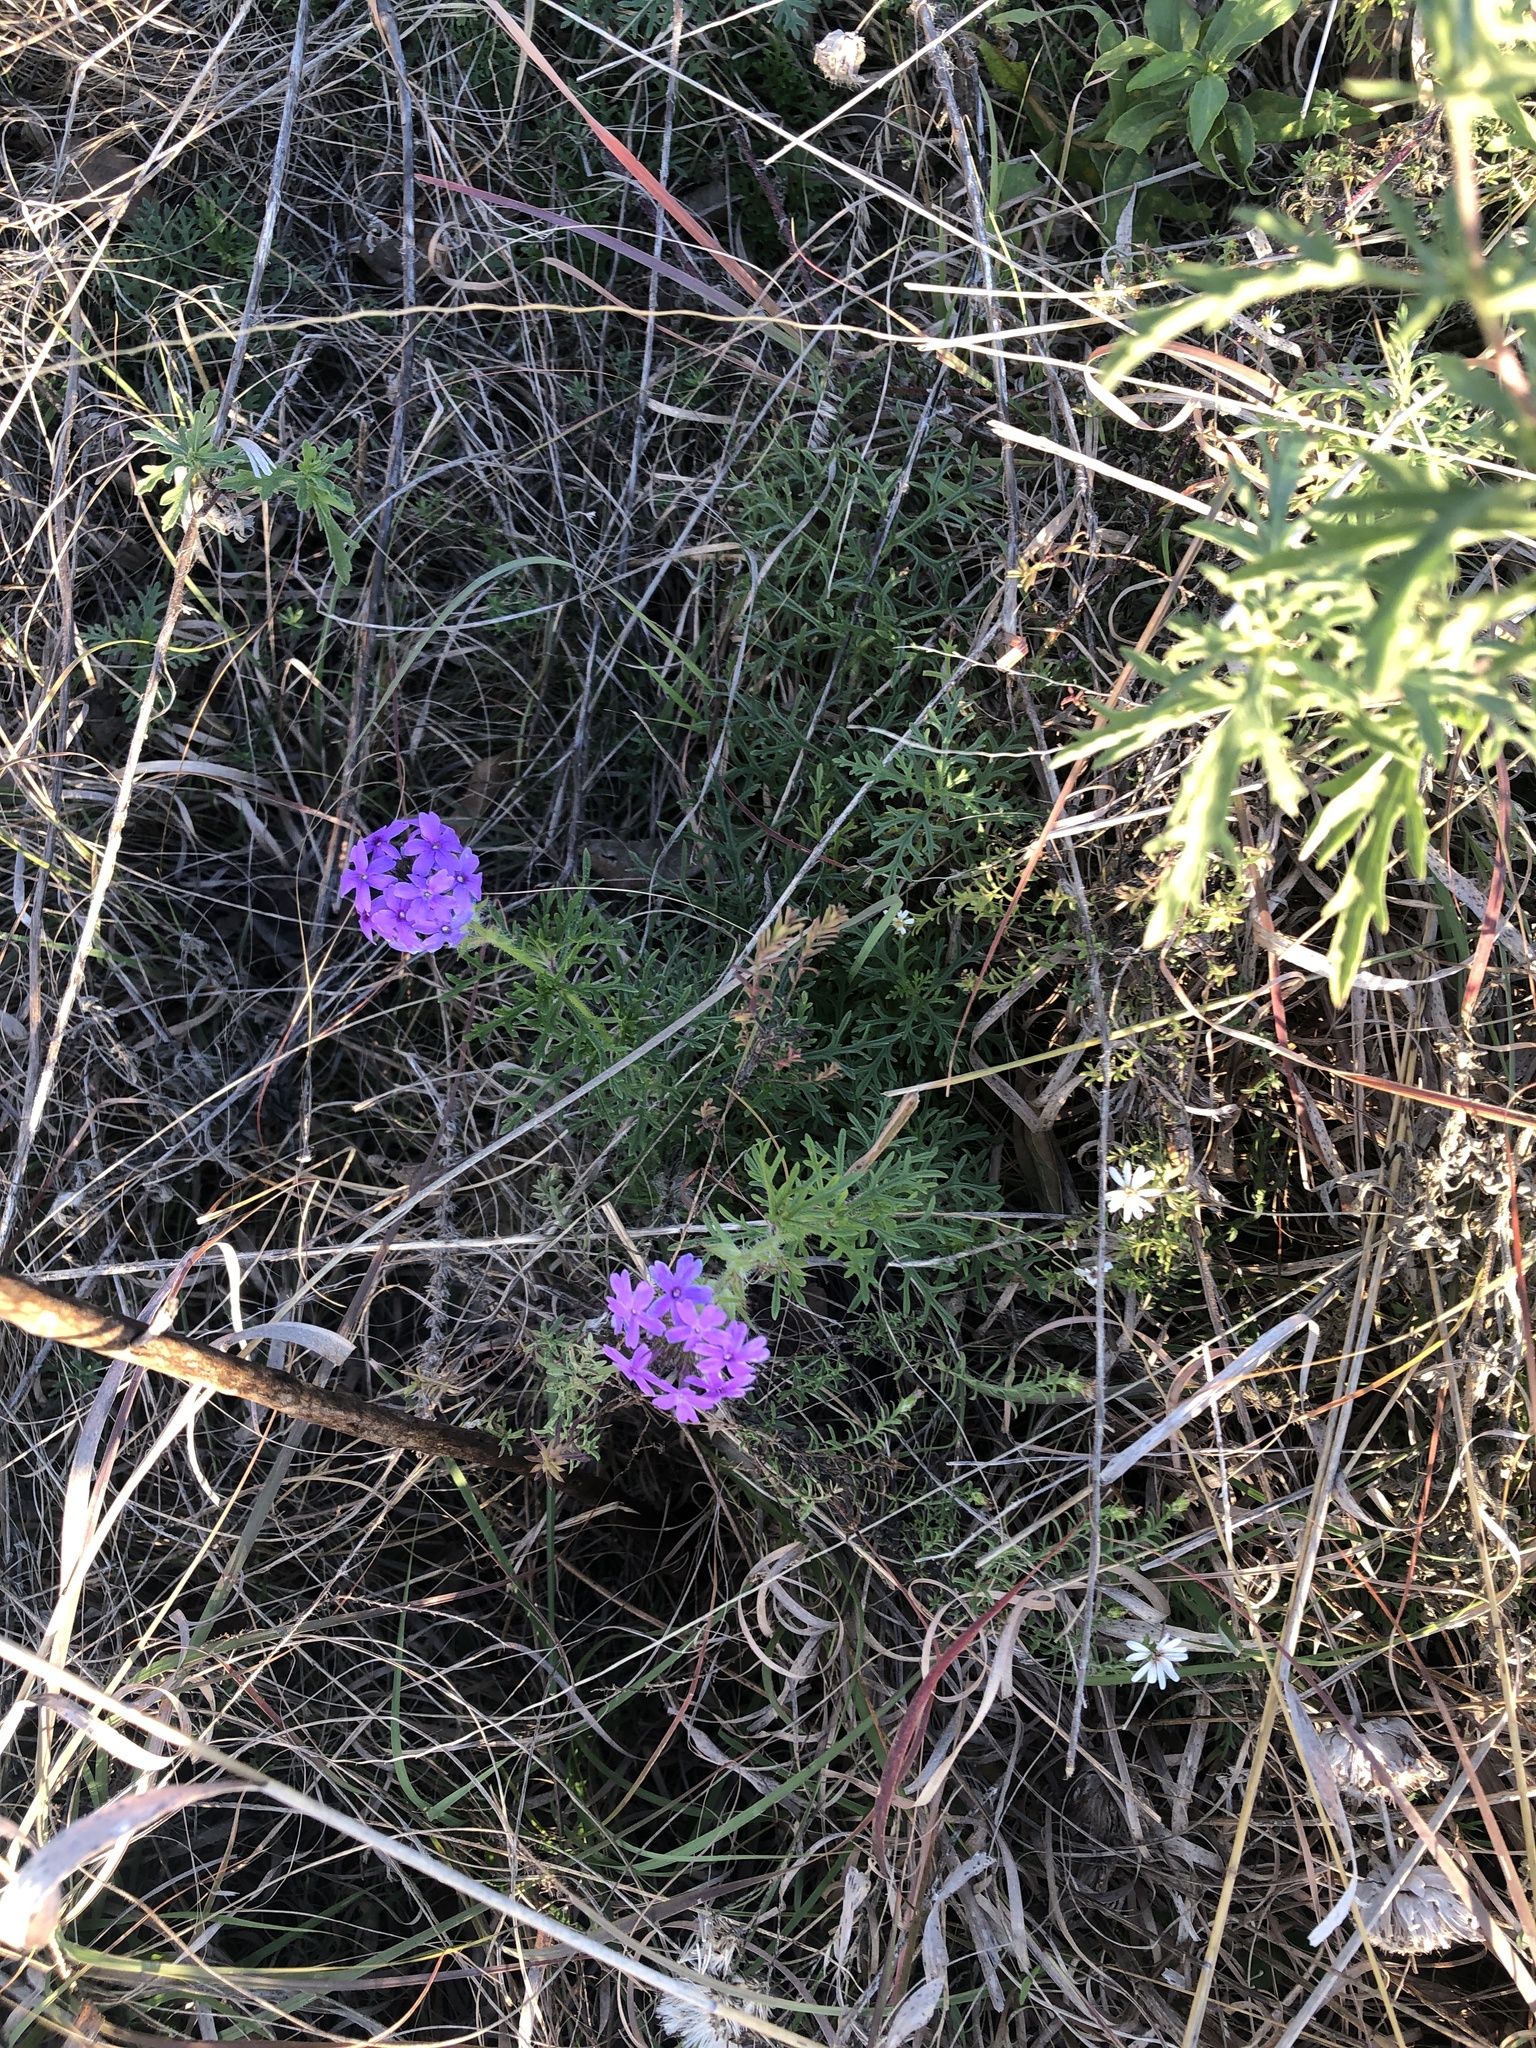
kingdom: Plantae
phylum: Tracheophyta
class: Magnoliopsida
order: Lamiales
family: Verbenaceae
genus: Verbena
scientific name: Verbena bipinnatifida
